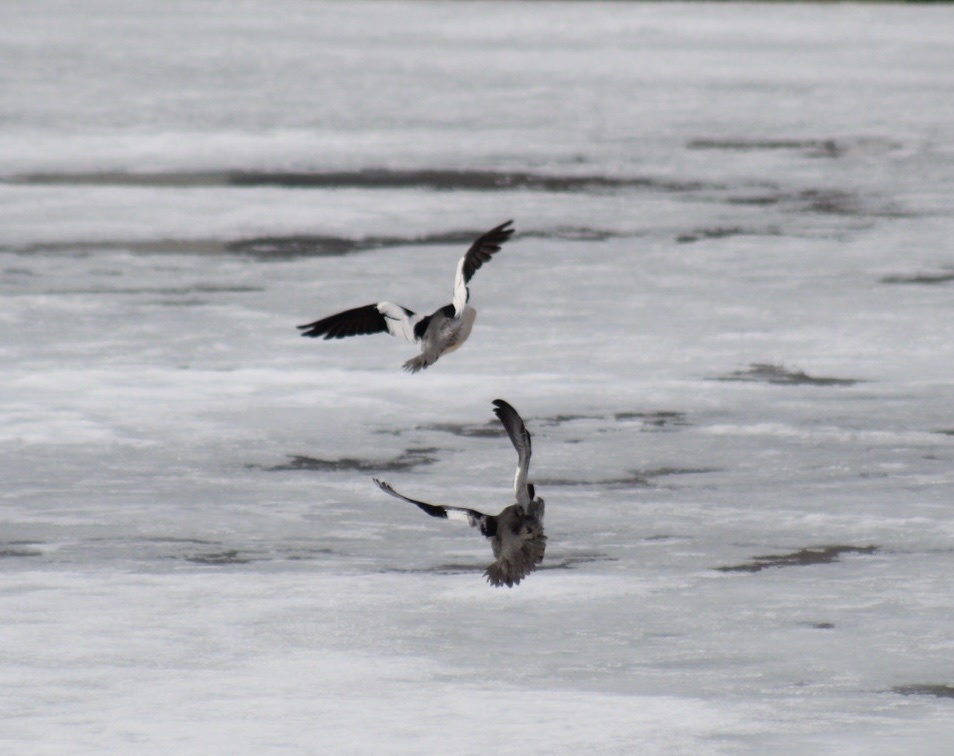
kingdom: Animalia
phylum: Chordata
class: Aves
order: Anseriformes
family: Anatidae
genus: Mergus
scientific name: Mergus merganser
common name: Common merganser
